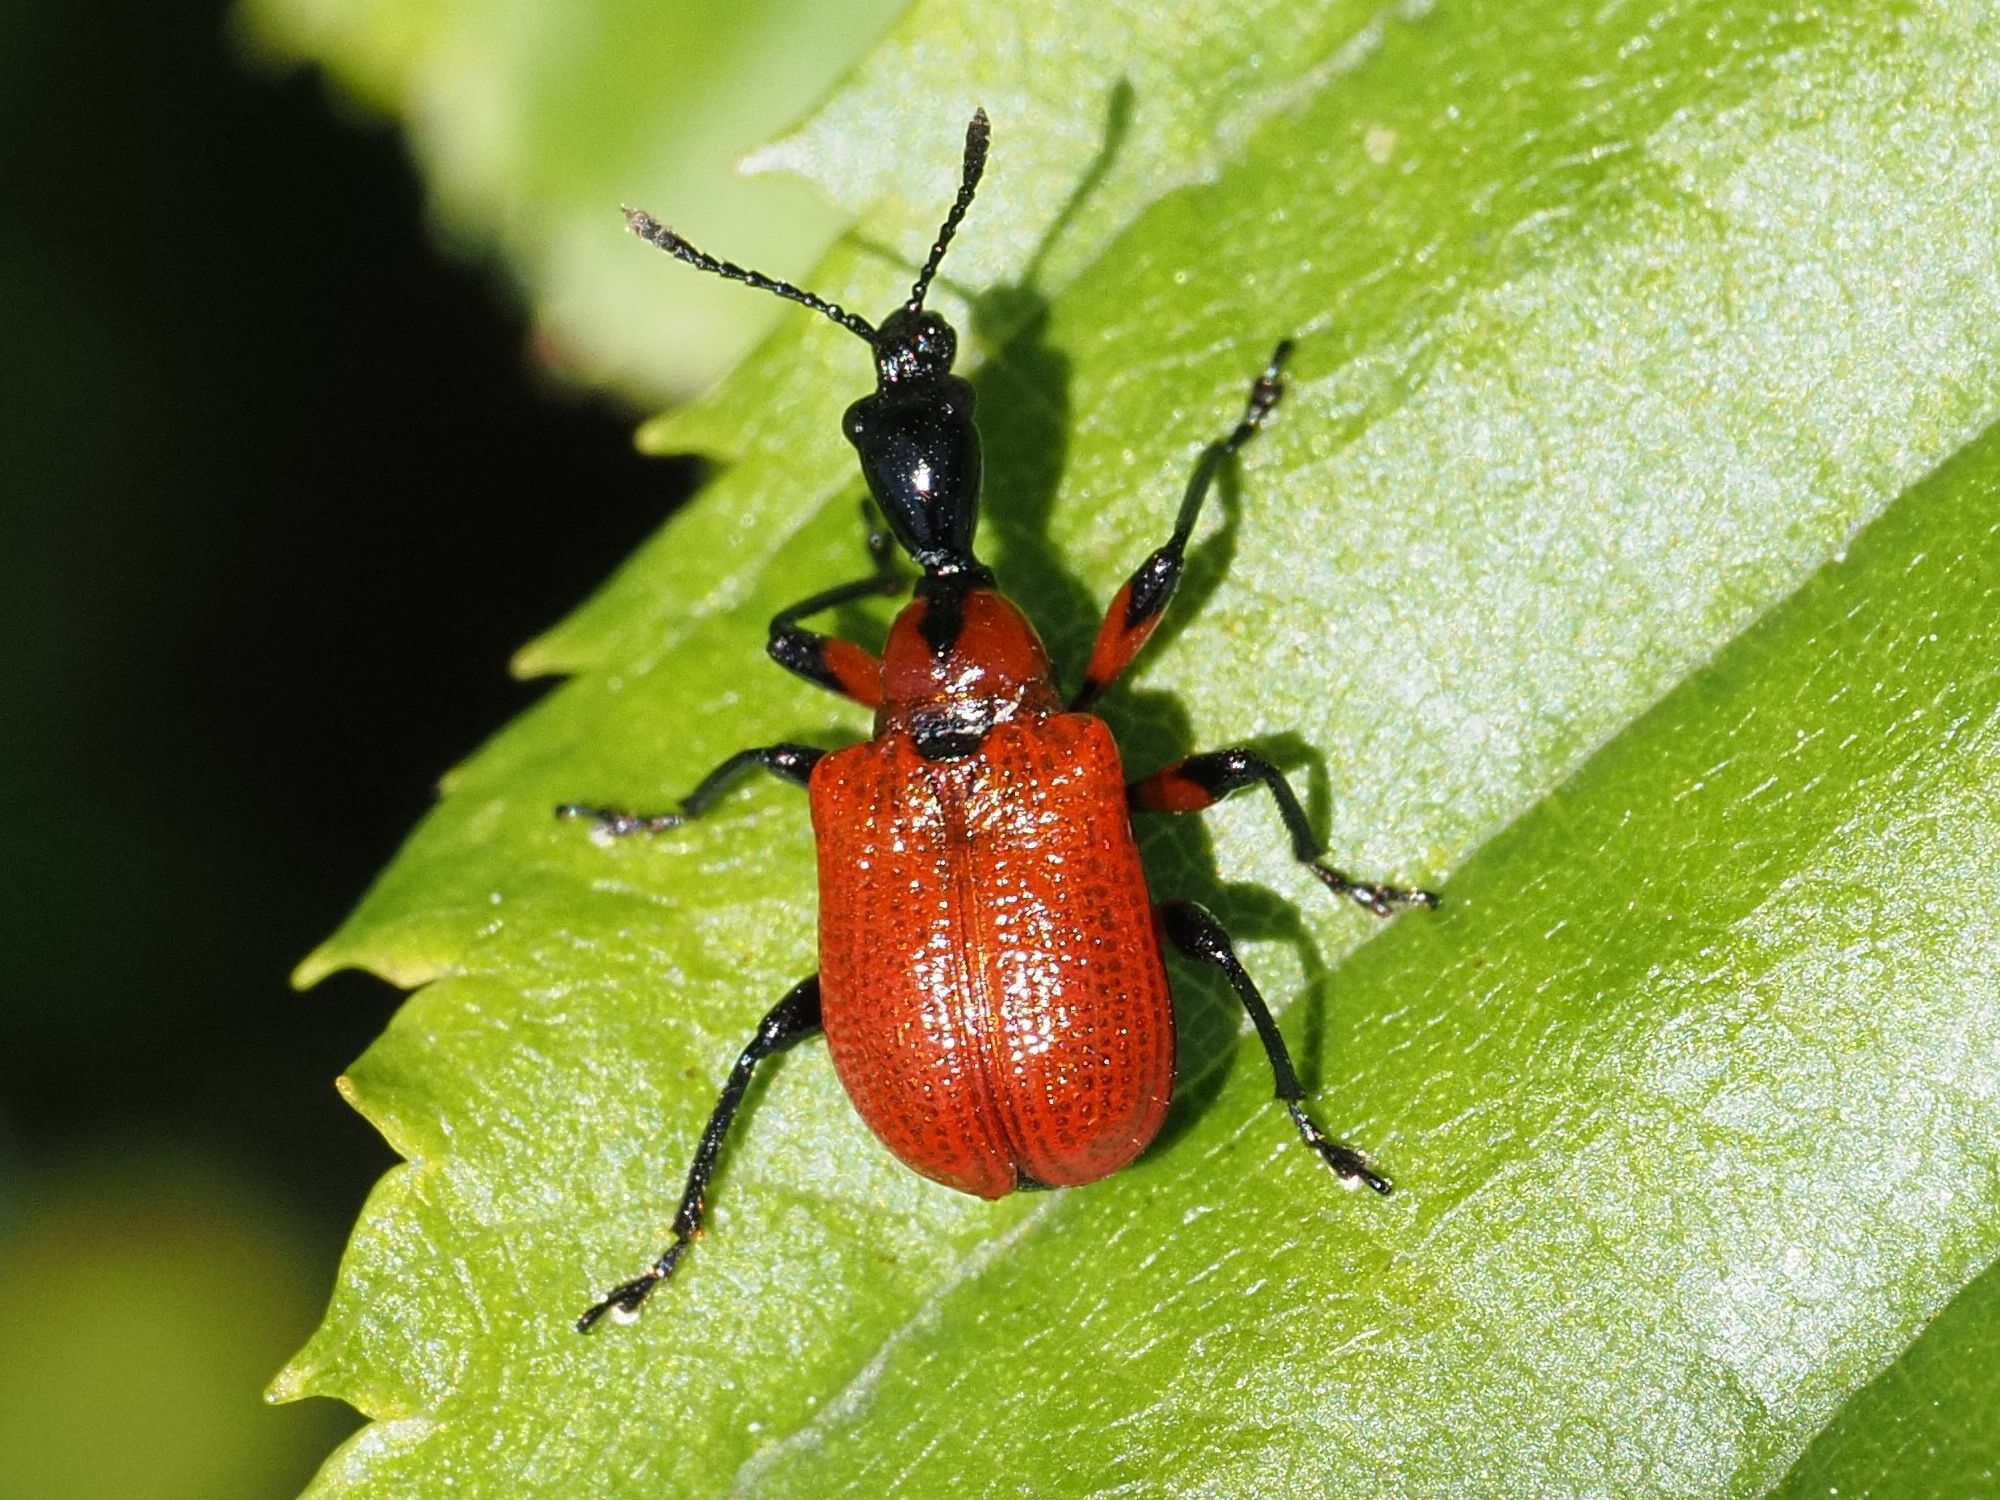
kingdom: Animalia
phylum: Arthropoda
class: Insecta
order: Coleoptera
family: Attelabidae
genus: Apoderus
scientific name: Apoderus coryli
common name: Hazel leaf roller
